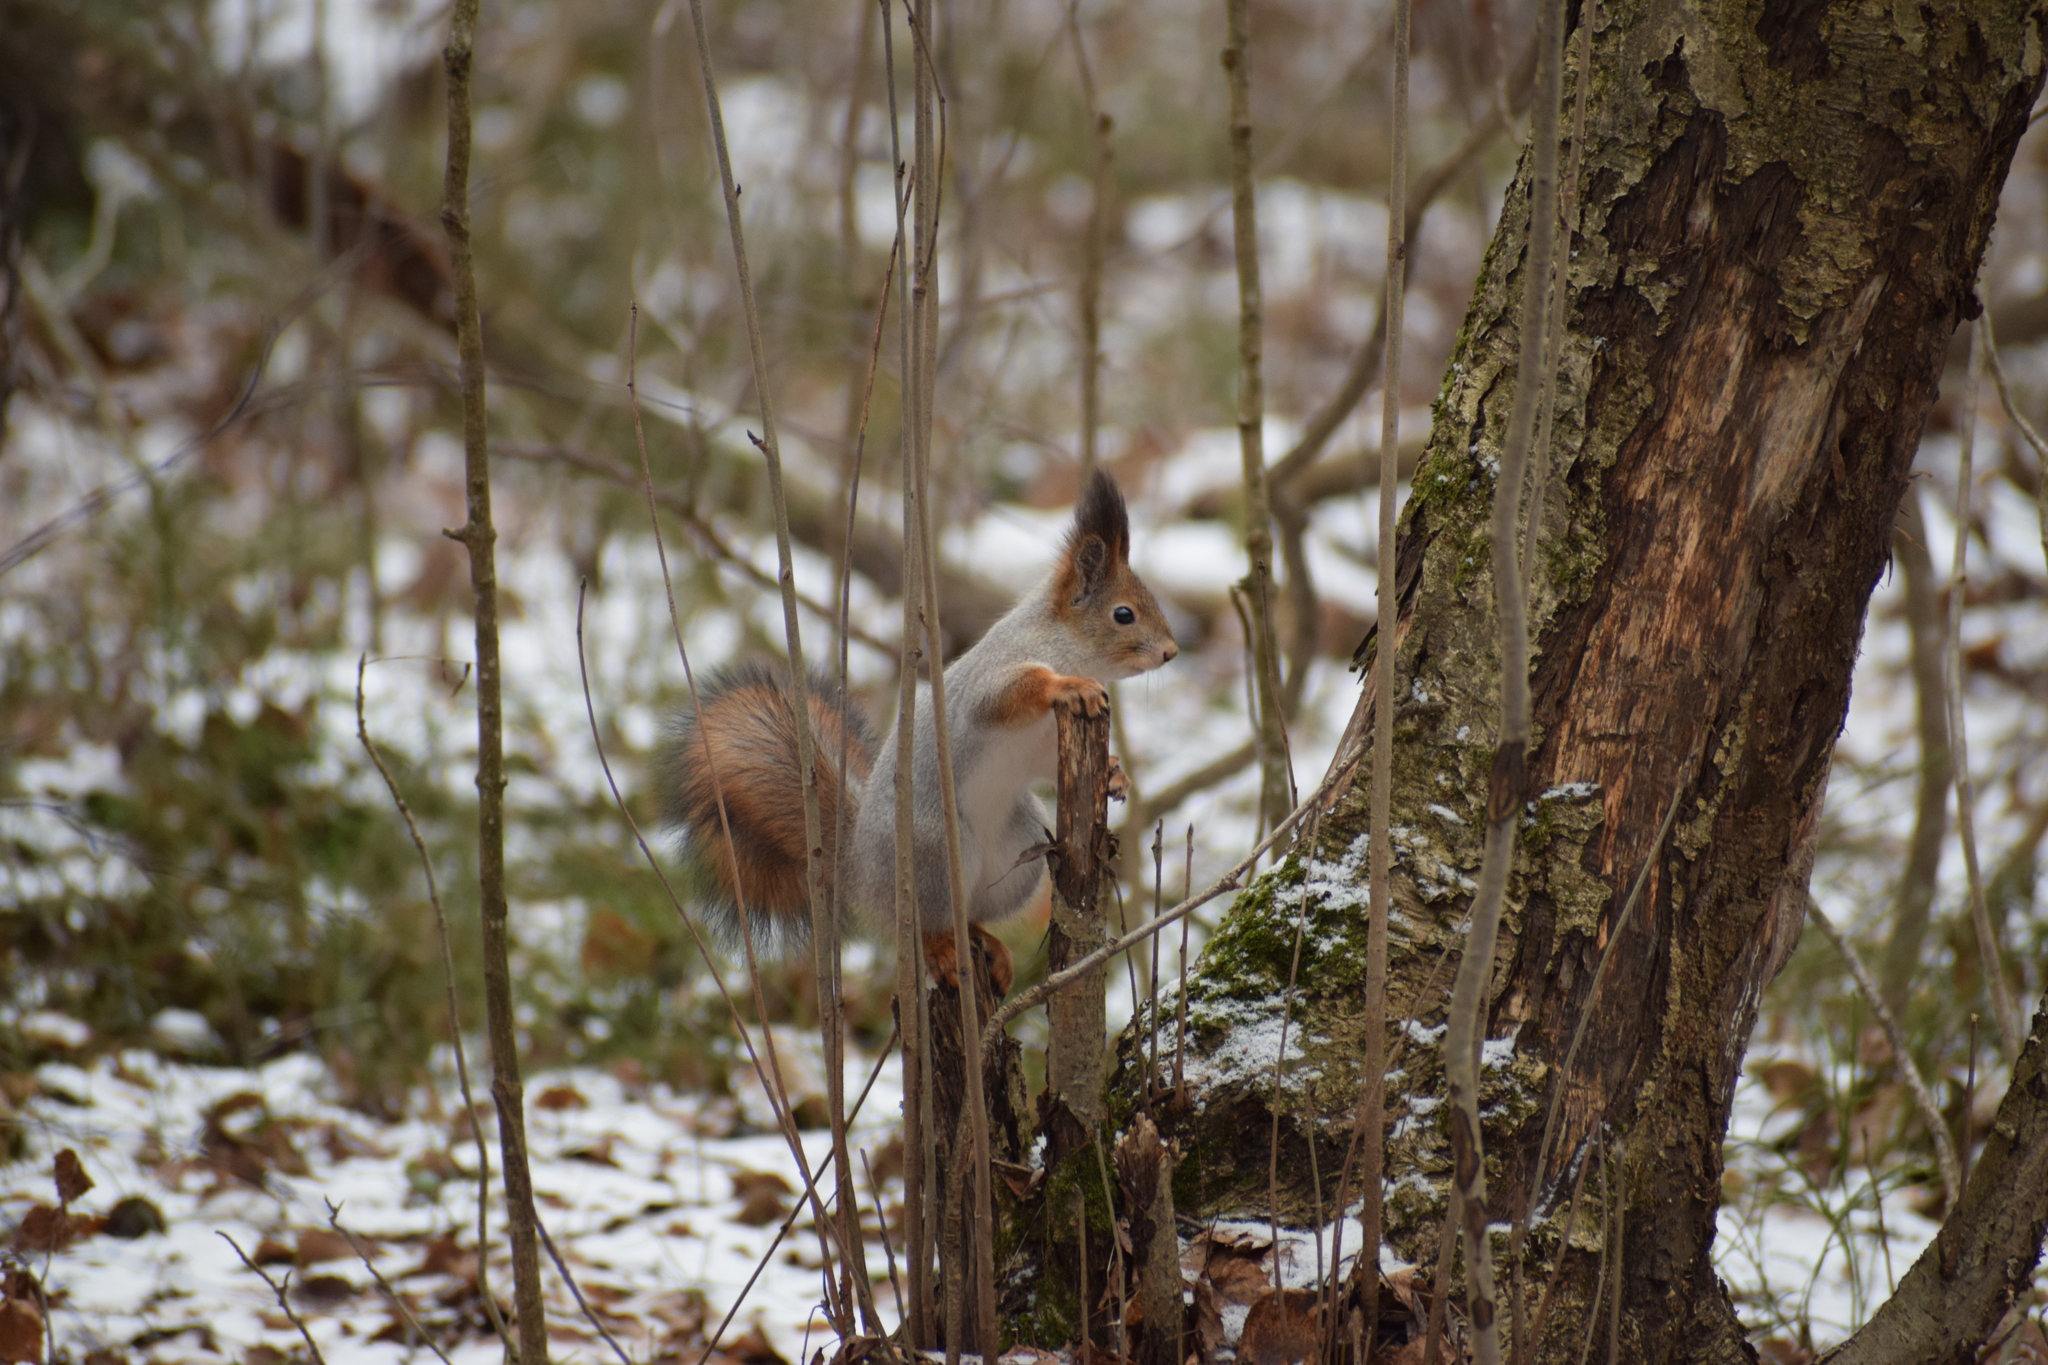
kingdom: Animalia
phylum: Chordata
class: Mammalia
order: Rodentia
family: Sciuridae
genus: Sciurus
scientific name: Sciurus vulgaris
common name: Eurasian red squirrel
